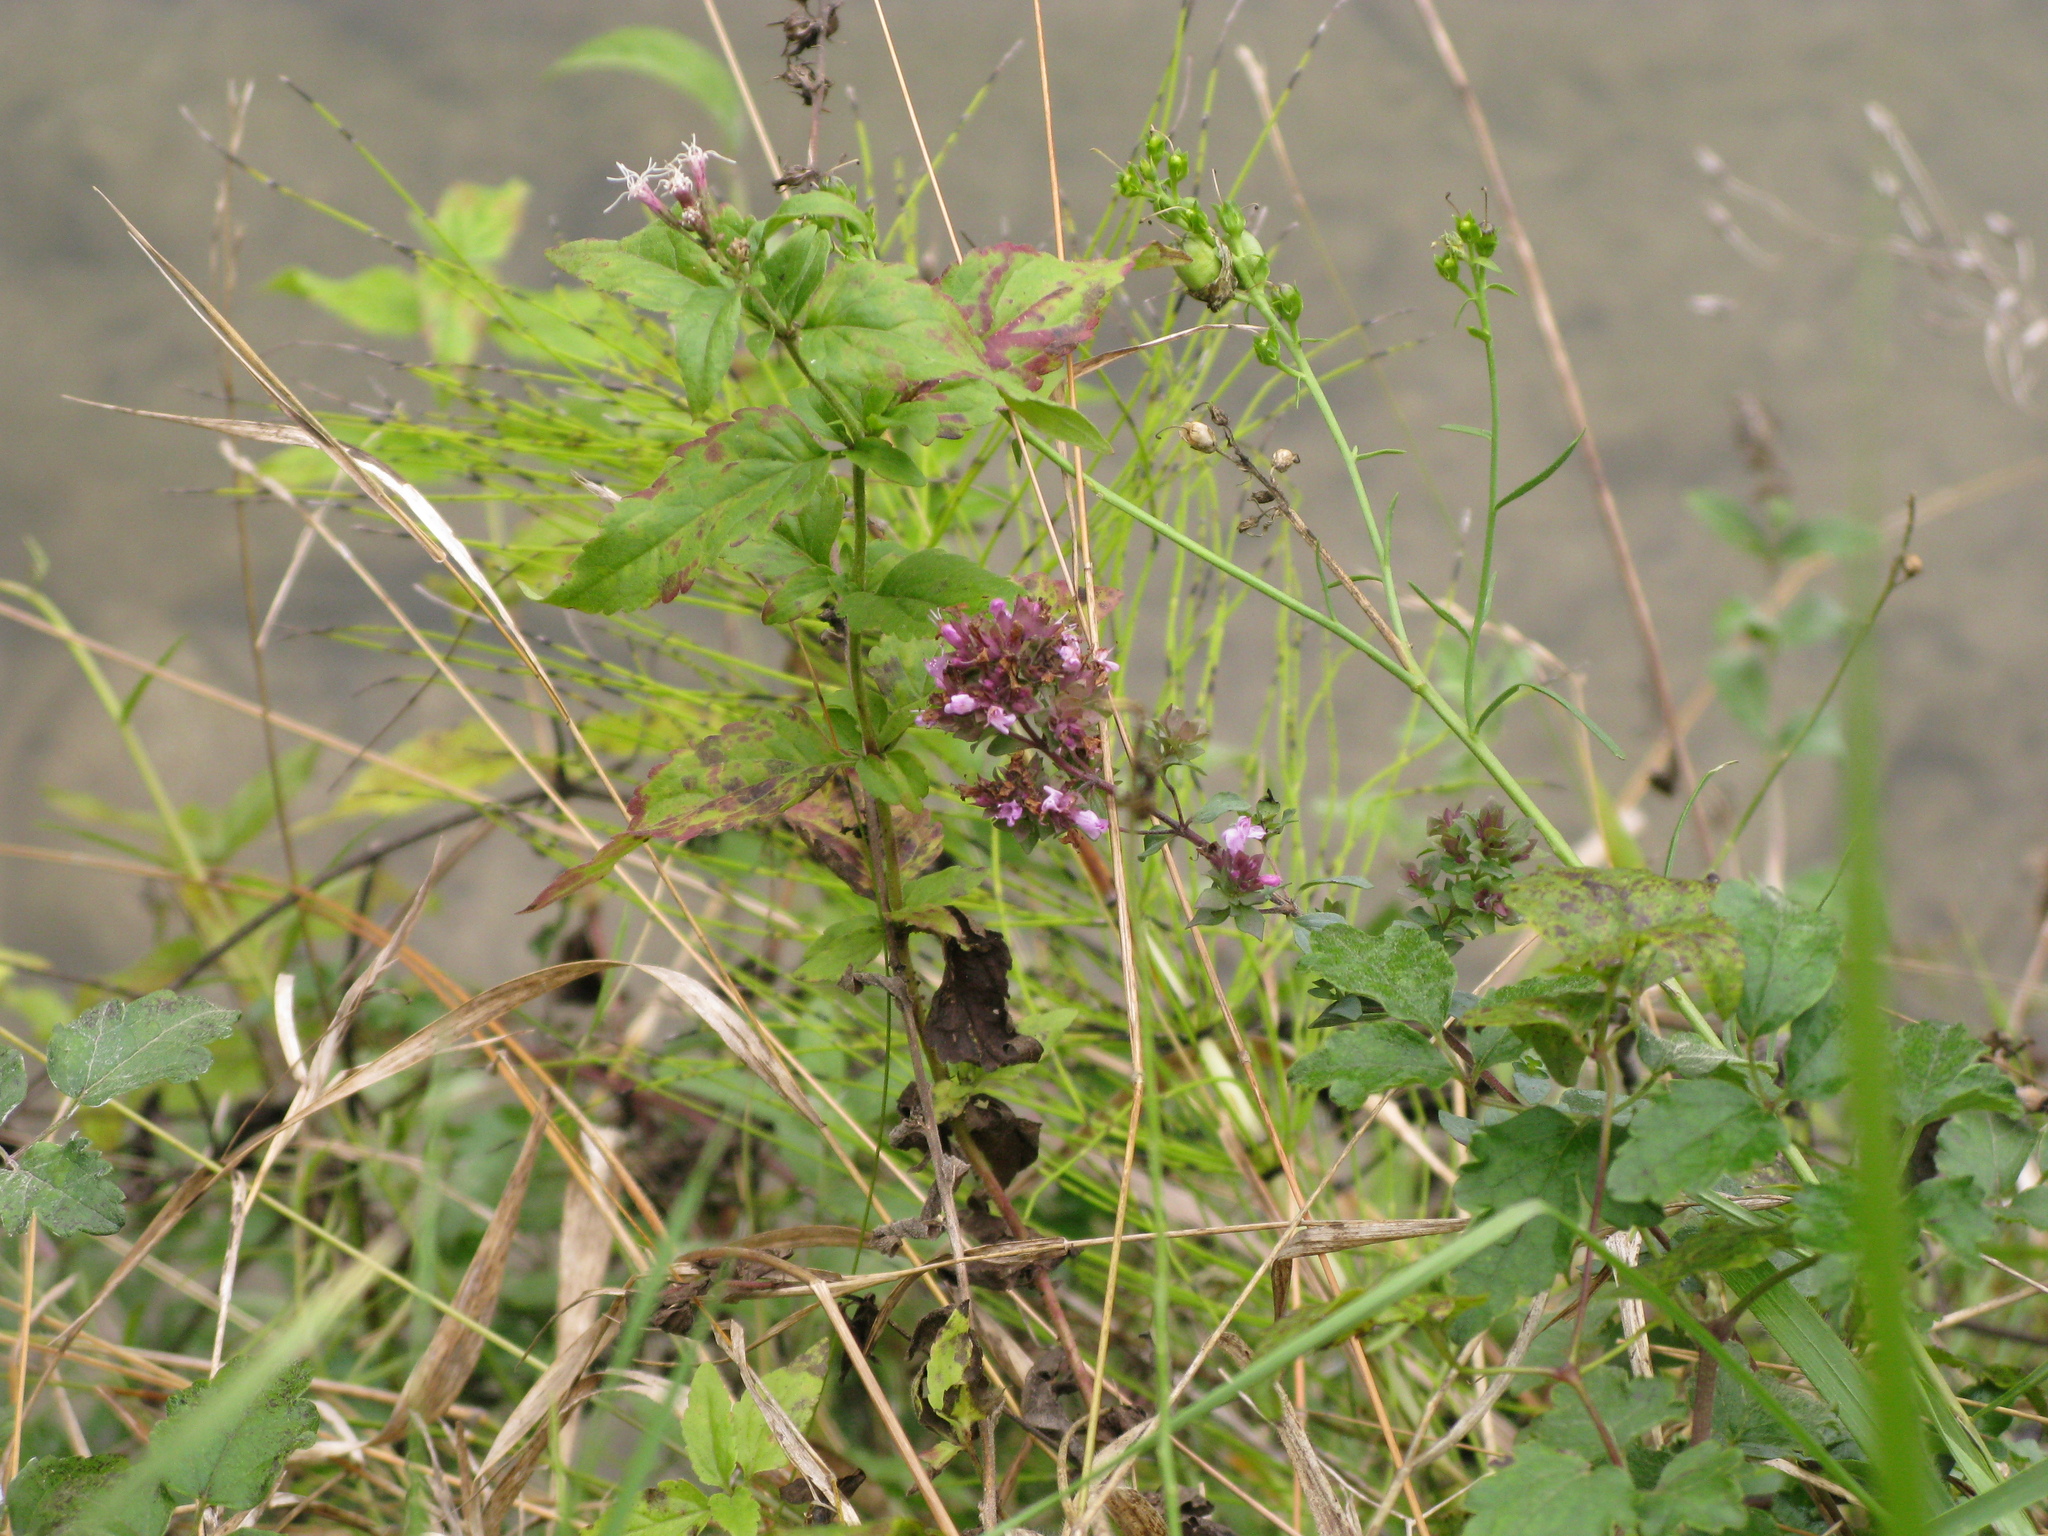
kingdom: Plantae
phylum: Tracheophyta
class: Magnoliopsida
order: Asterales
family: Asteraceae
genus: Eupatorium
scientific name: Eupatorium cannabinum
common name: Hemp-agrimony
